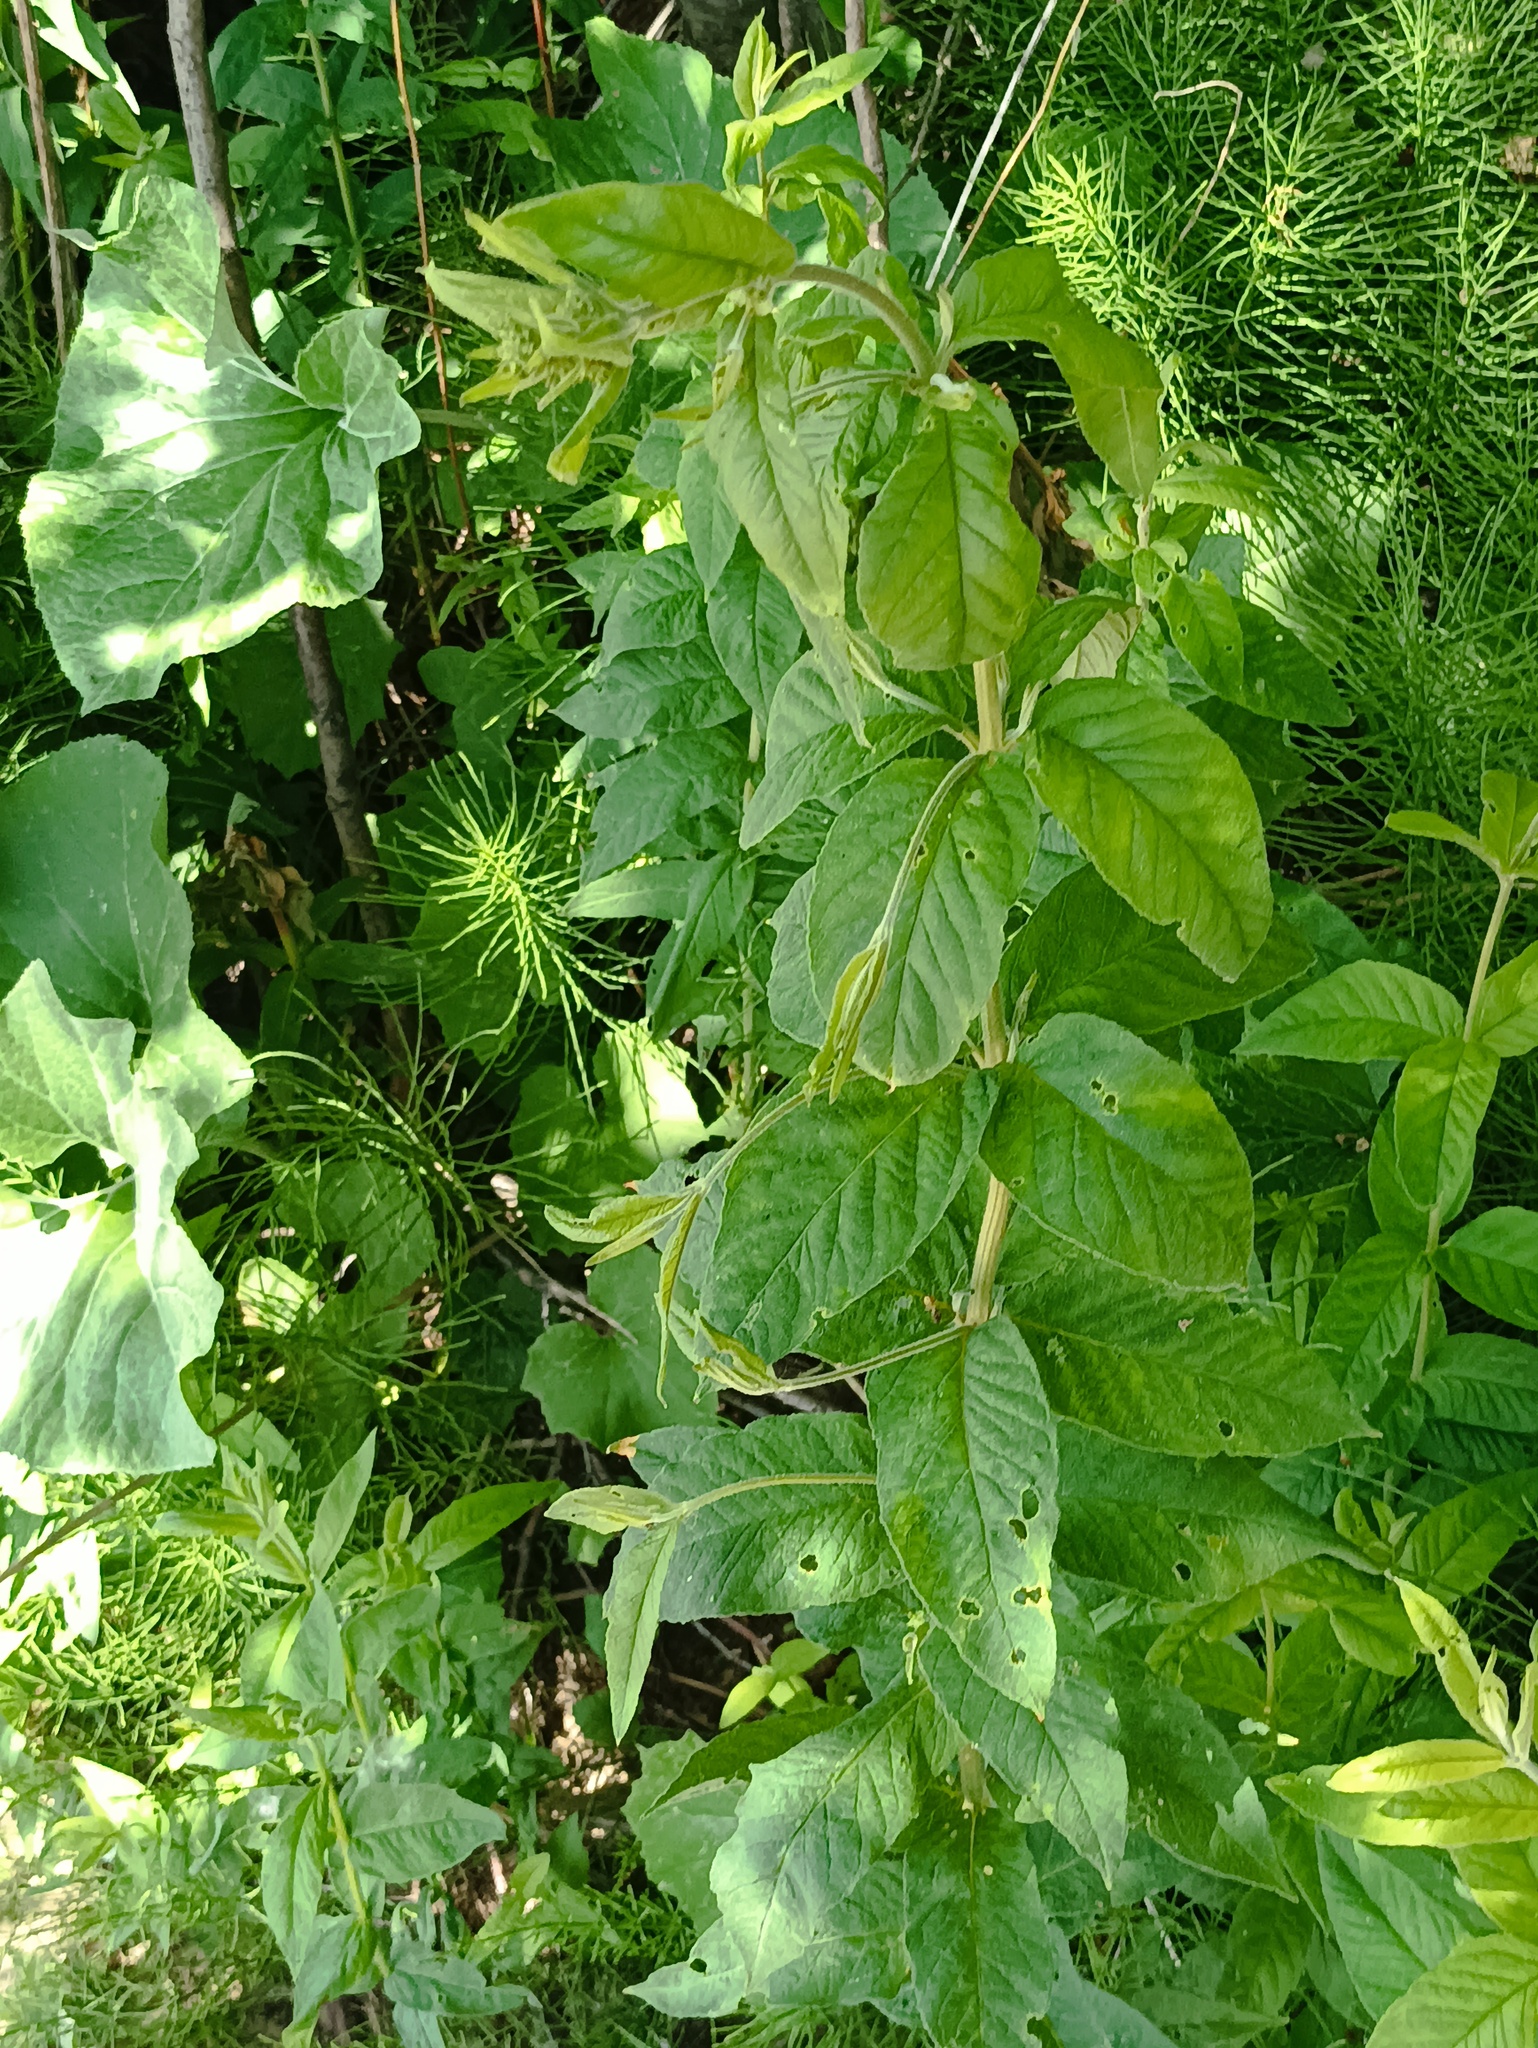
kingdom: Plantae
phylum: Tracheophyta
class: Magnoliopsida
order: Ericales
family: Primulaceae
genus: Lysimachia
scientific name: Lysimachia vulgaris
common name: Yellow loosestrife
